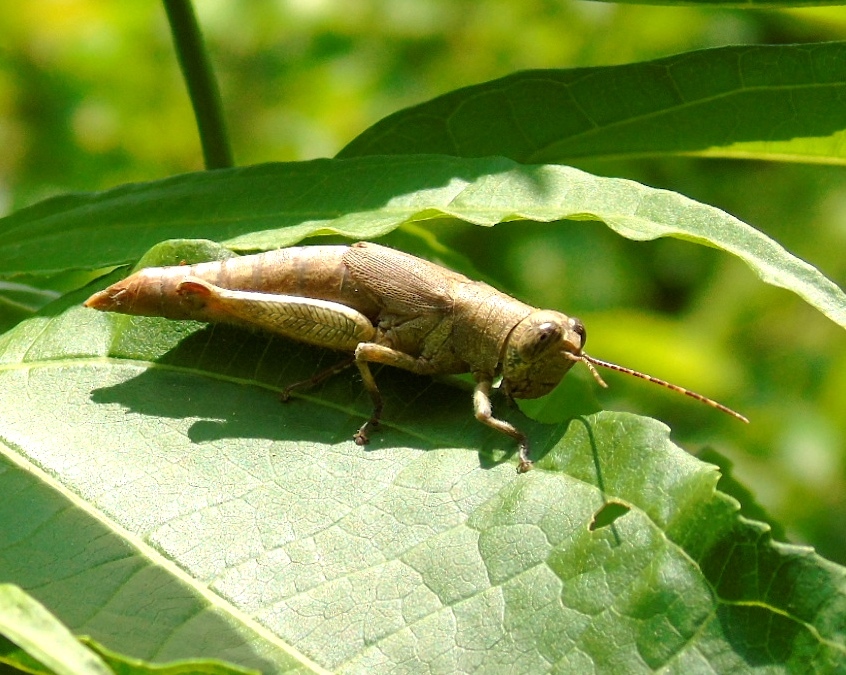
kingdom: Animalia
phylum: Arthropoda
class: Insecta
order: Orthoptera
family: Acrididae
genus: Proctolabus
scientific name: Proctolabus cerciatus
